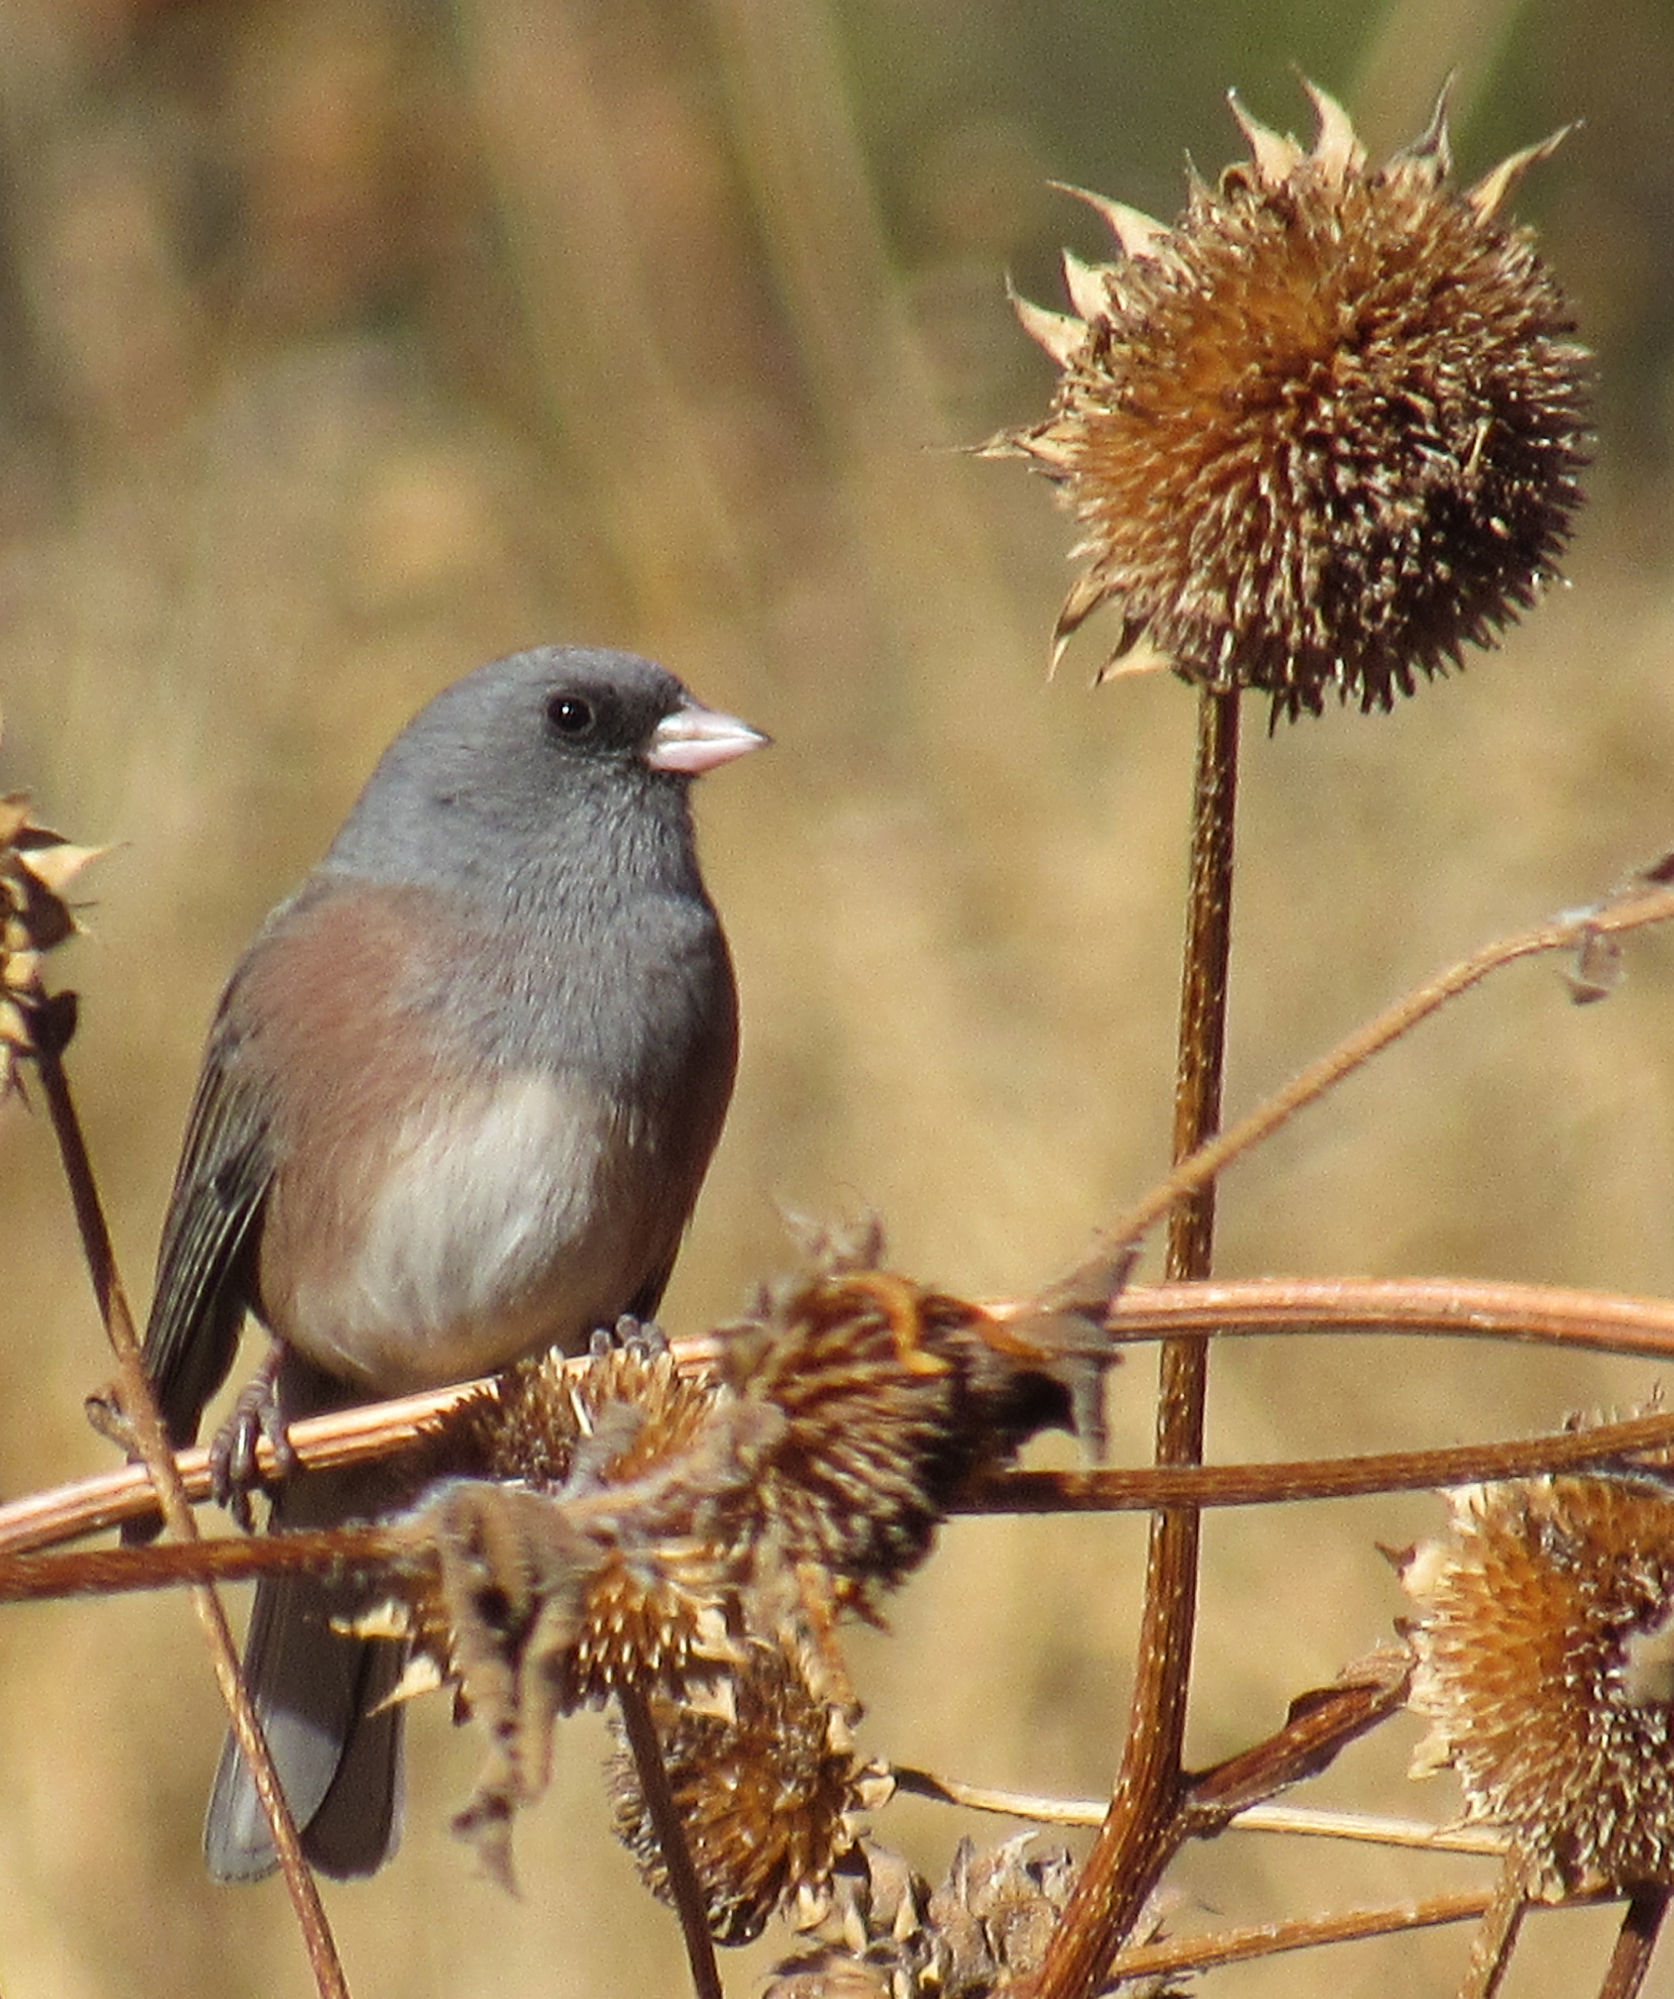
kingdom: Animalia
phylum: Chordata
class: Aves
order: Passeriformes
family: Passerellidae
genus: Junco
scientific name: Junco hyemalis
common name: Dark-eyed junco
